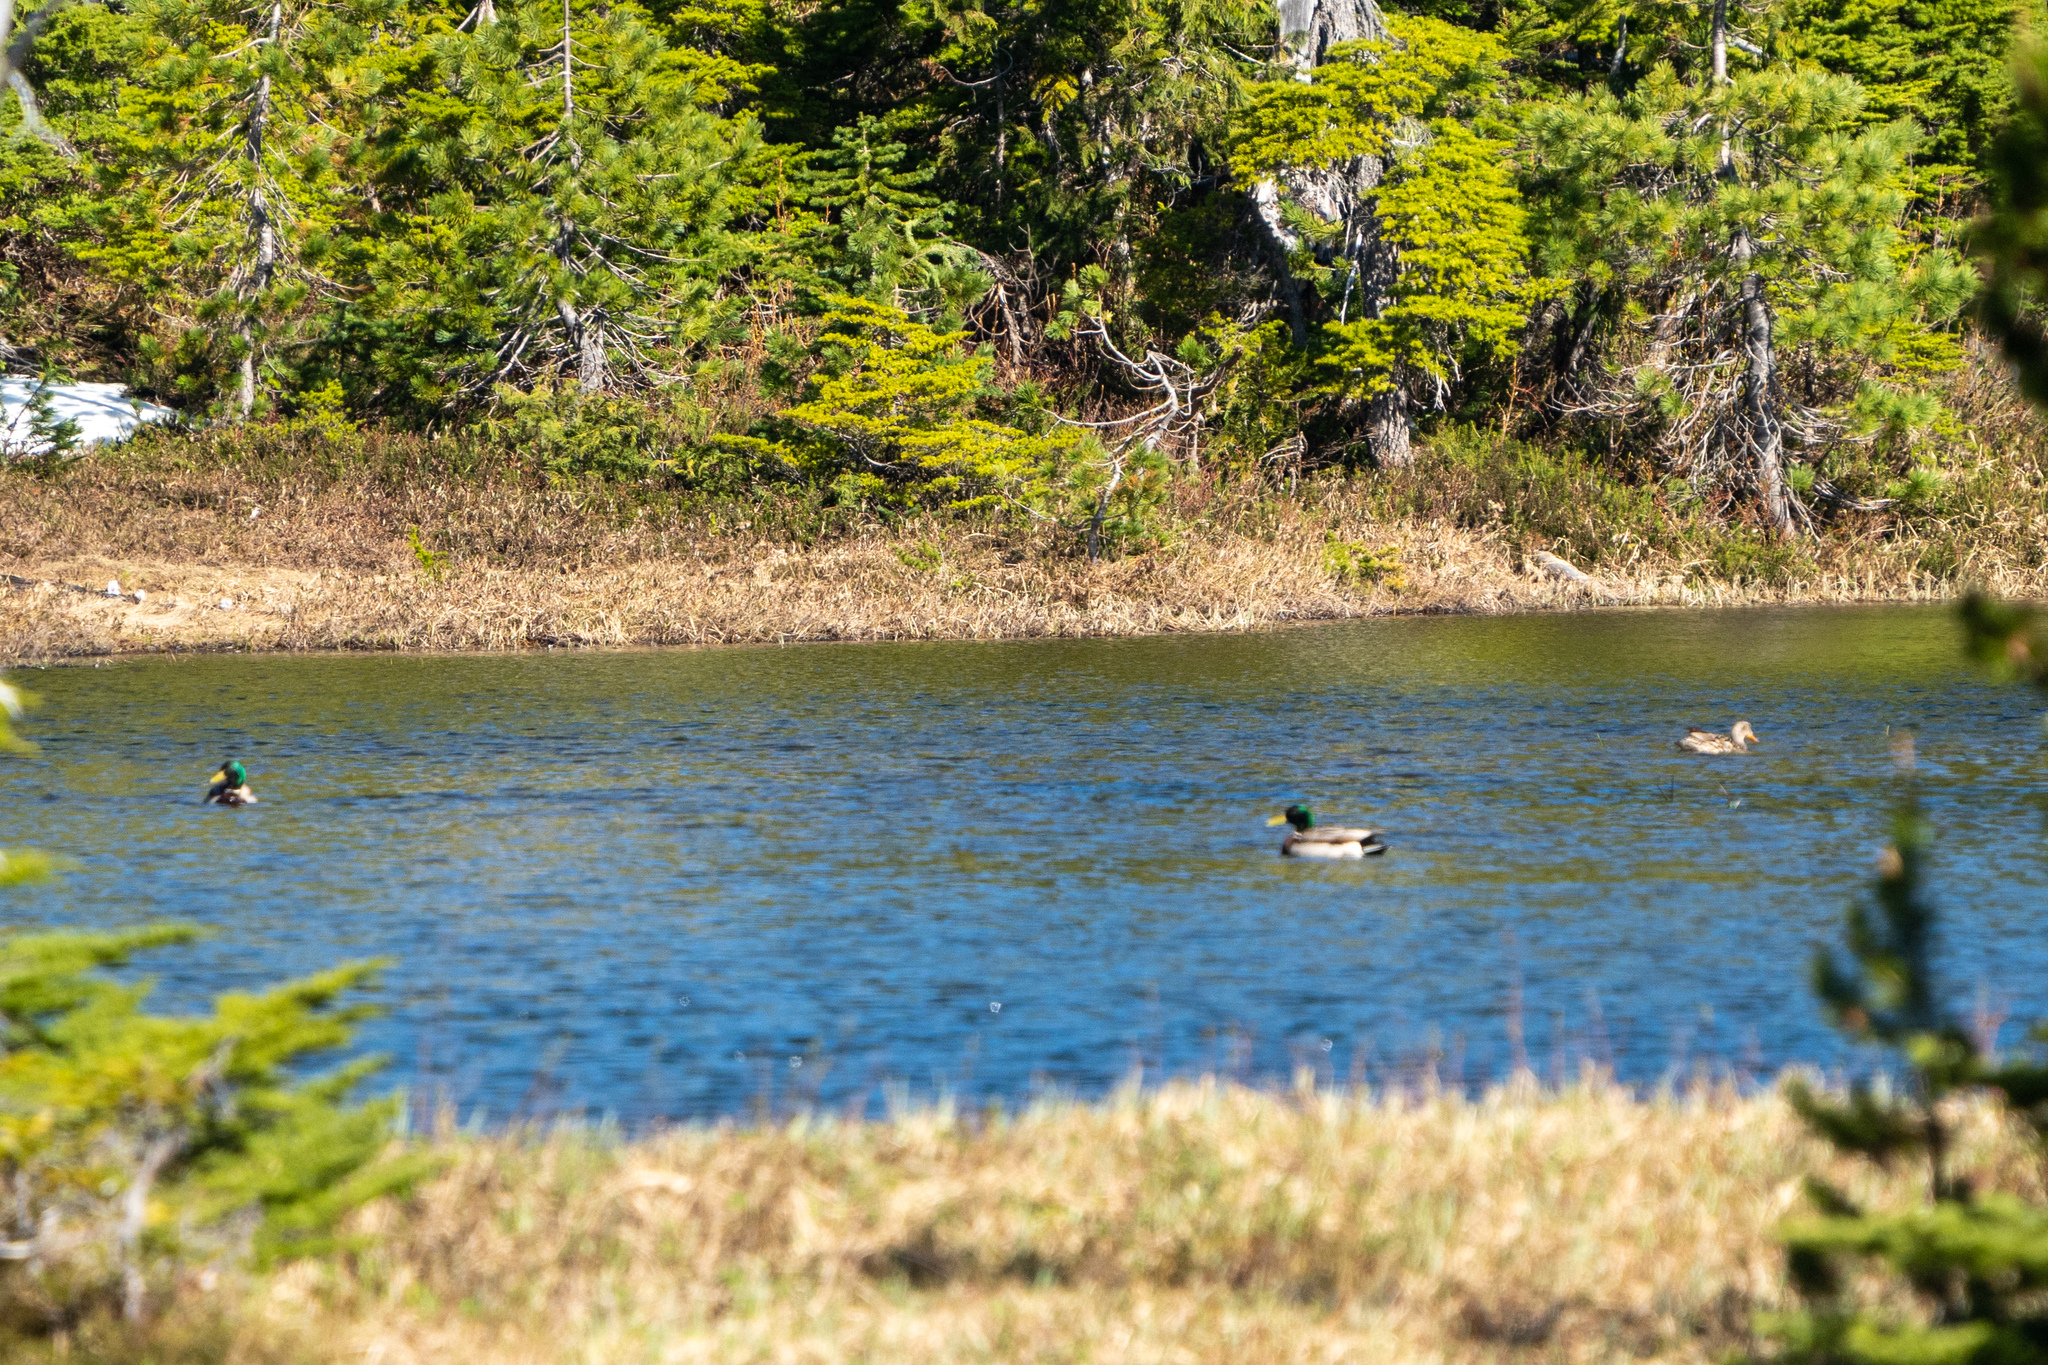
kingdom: Animalia
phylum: Chordata
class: Aves
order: Anseriformes
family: Anatidae
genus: Anas
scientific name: Anas platyrhynchos
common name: Mallard
